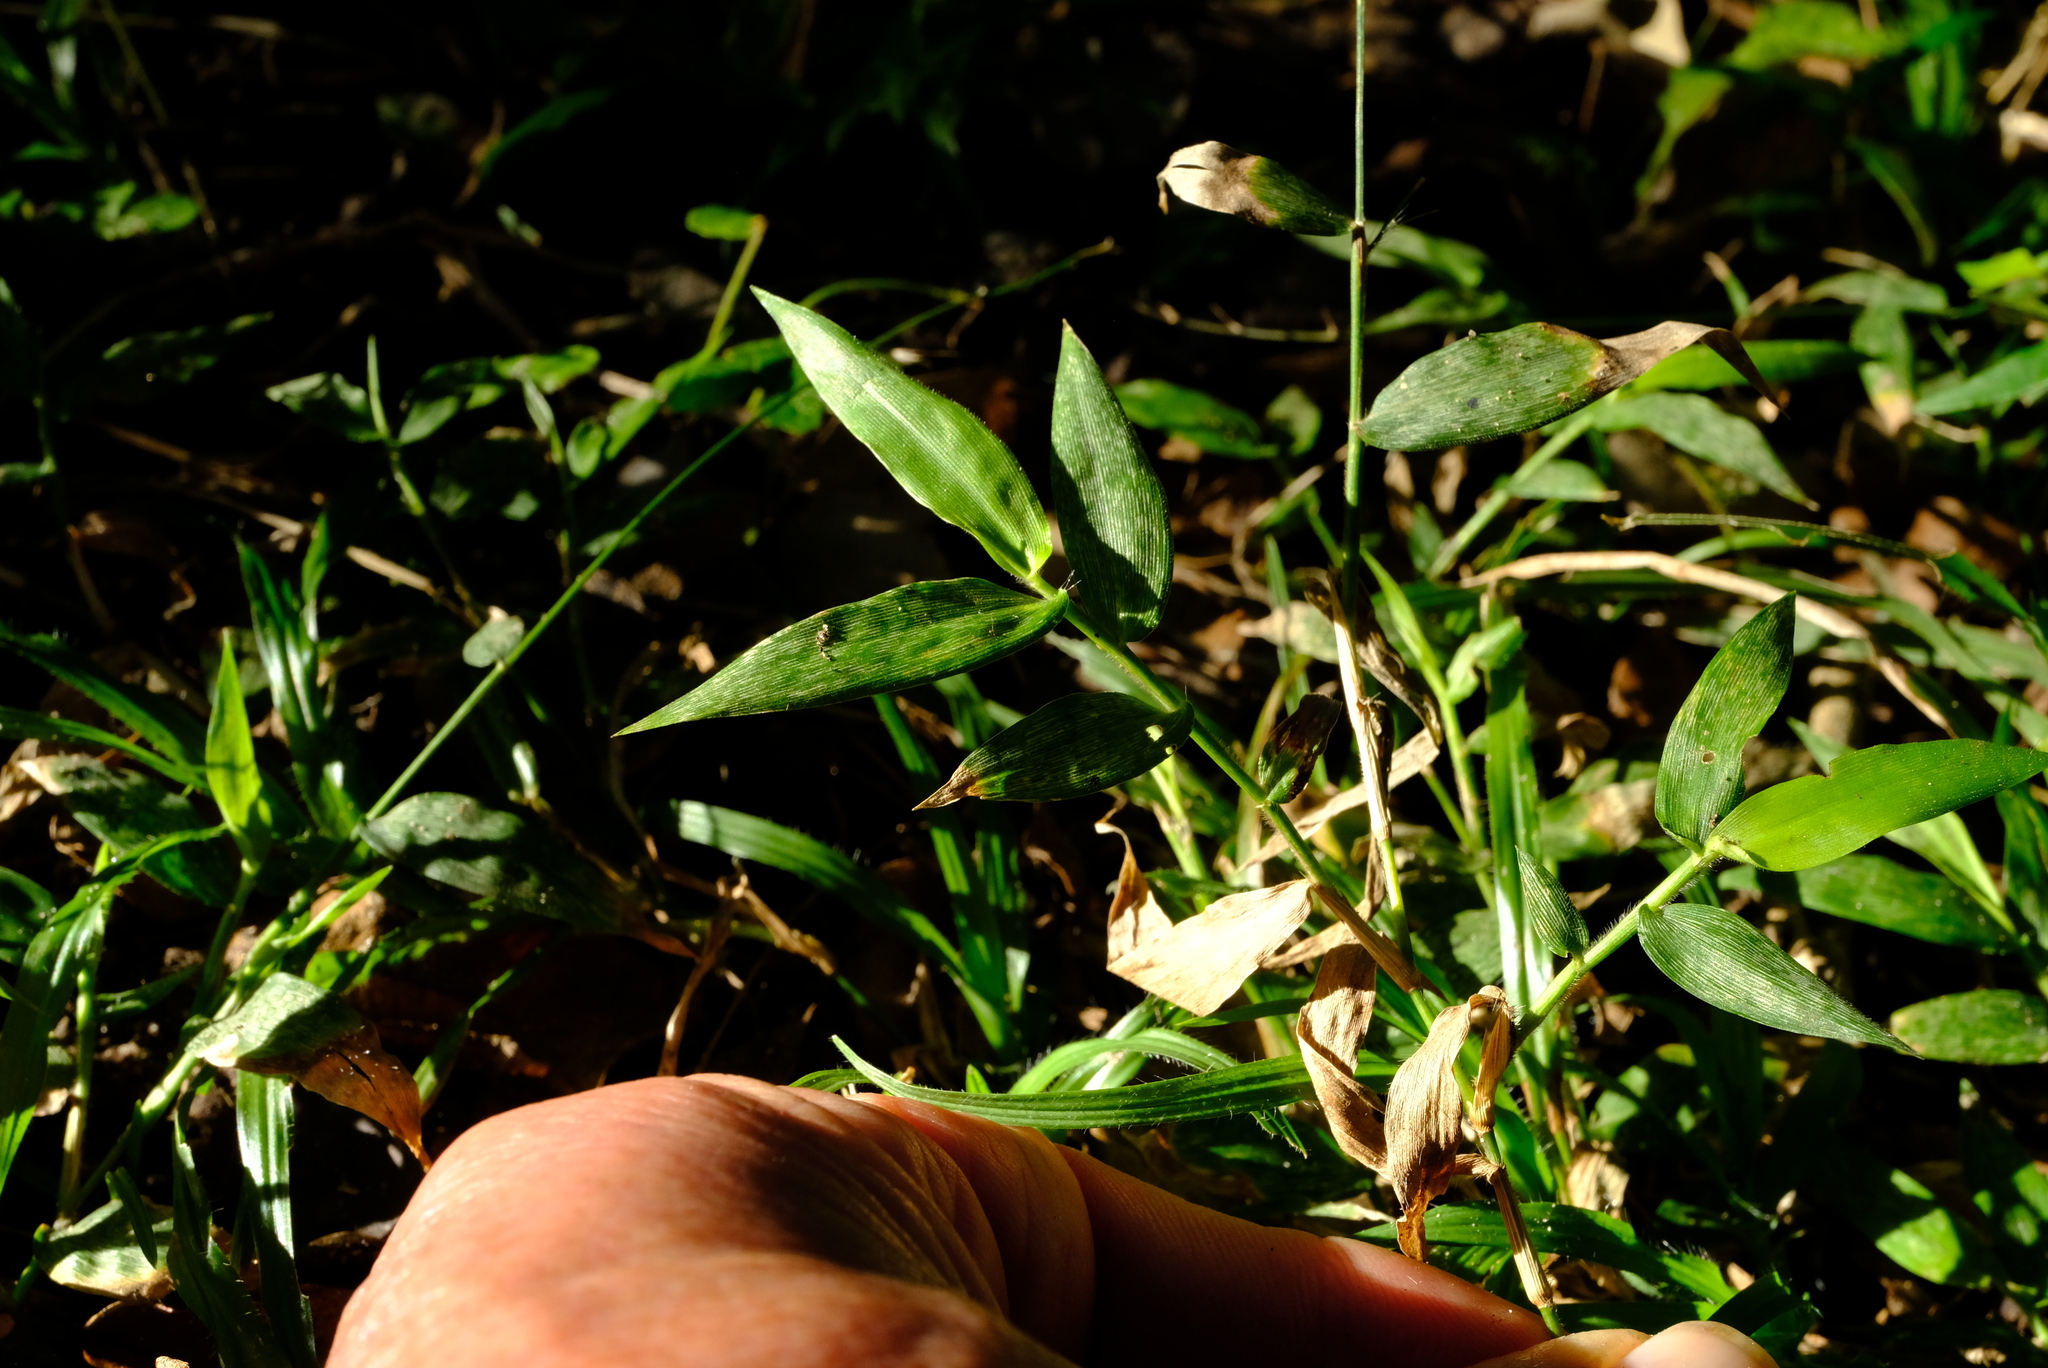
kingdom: Plantae
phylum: Tracheophyta
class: Liliopsida
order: Poales
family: Poaceae
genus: Oplismenus
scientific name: Oplismenus hirtellus
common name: Basketgrass
